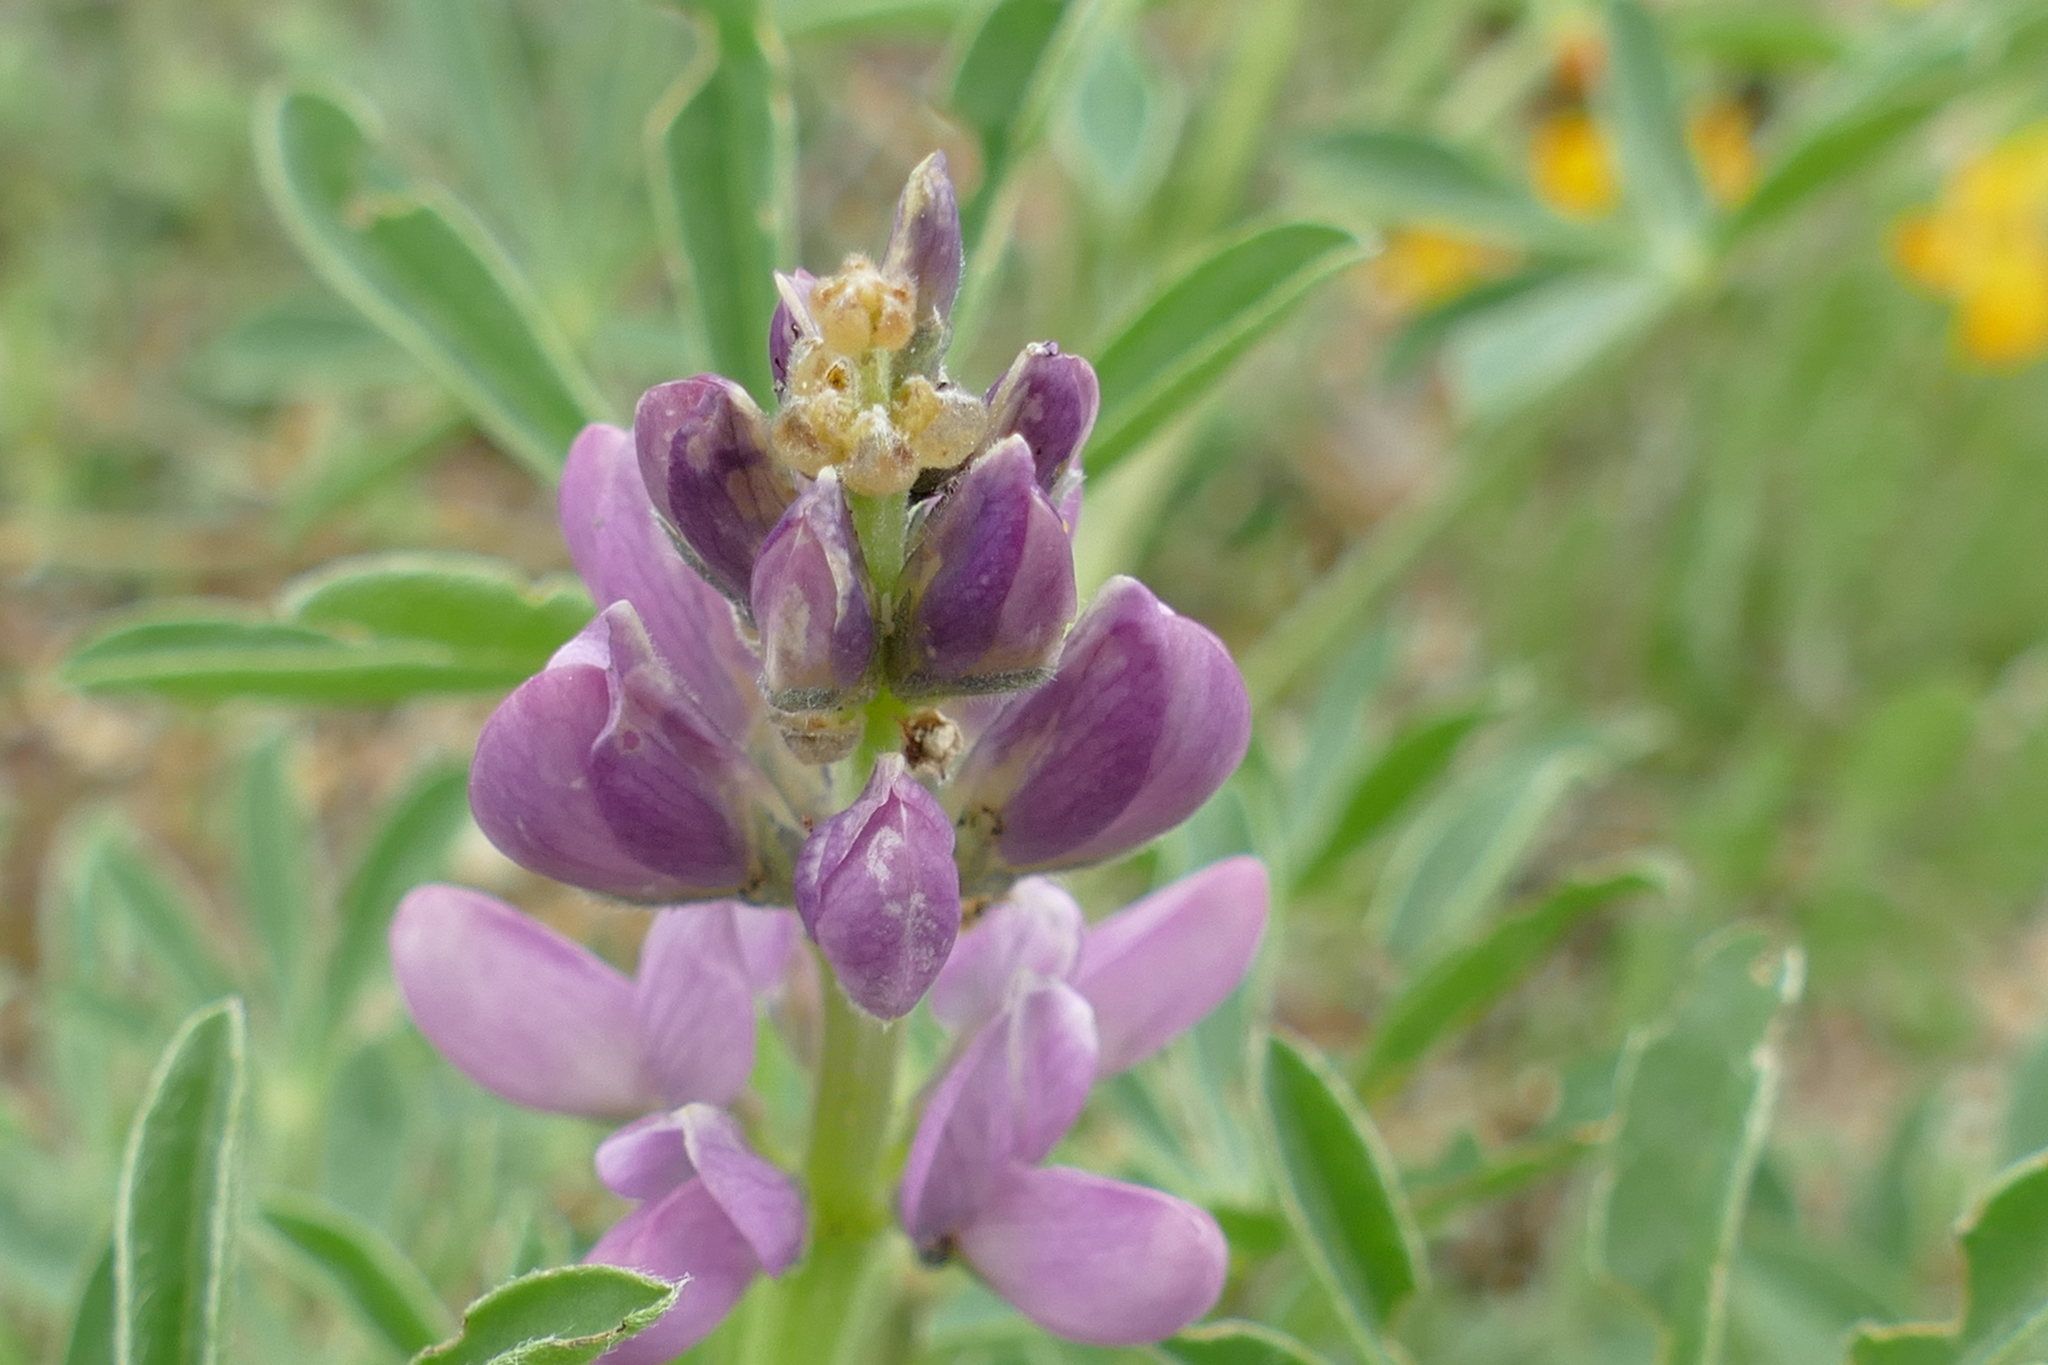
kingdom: Plantae
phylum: Tracheophyta
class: Magnoliopsida
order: Fabales
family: Fabaceae
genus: Lupinus
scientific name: Lupinus hispanicus
